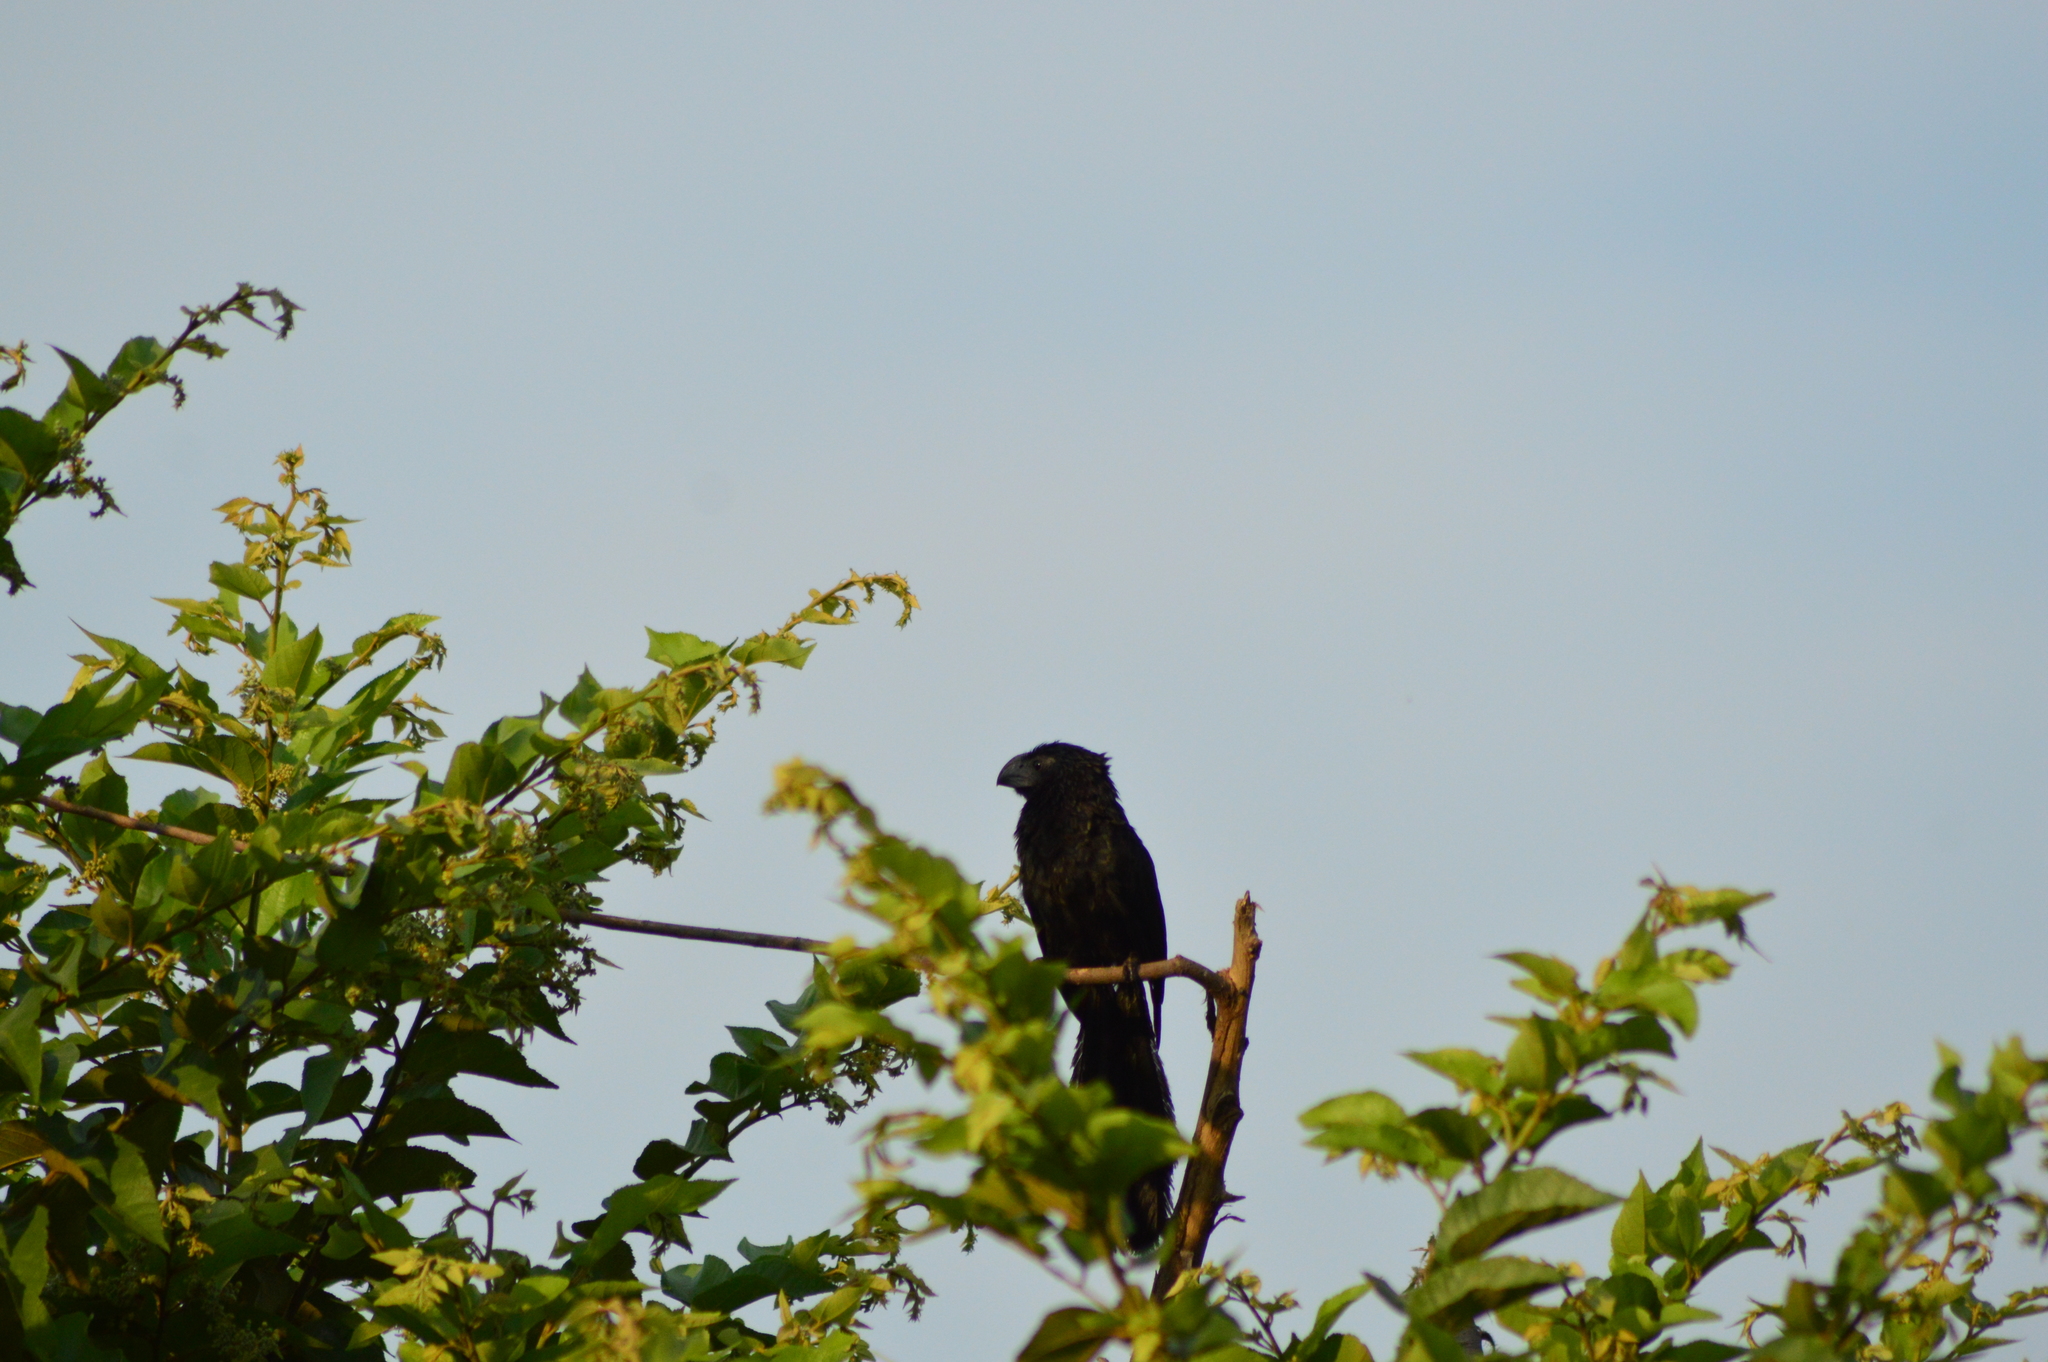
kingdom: Animalia
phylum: Chordata
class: Aves
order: Cuculiformes
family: Cuculidae
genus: Crotophaga
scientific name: Crotophaga sulcirostris
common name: Groove-billed ani
